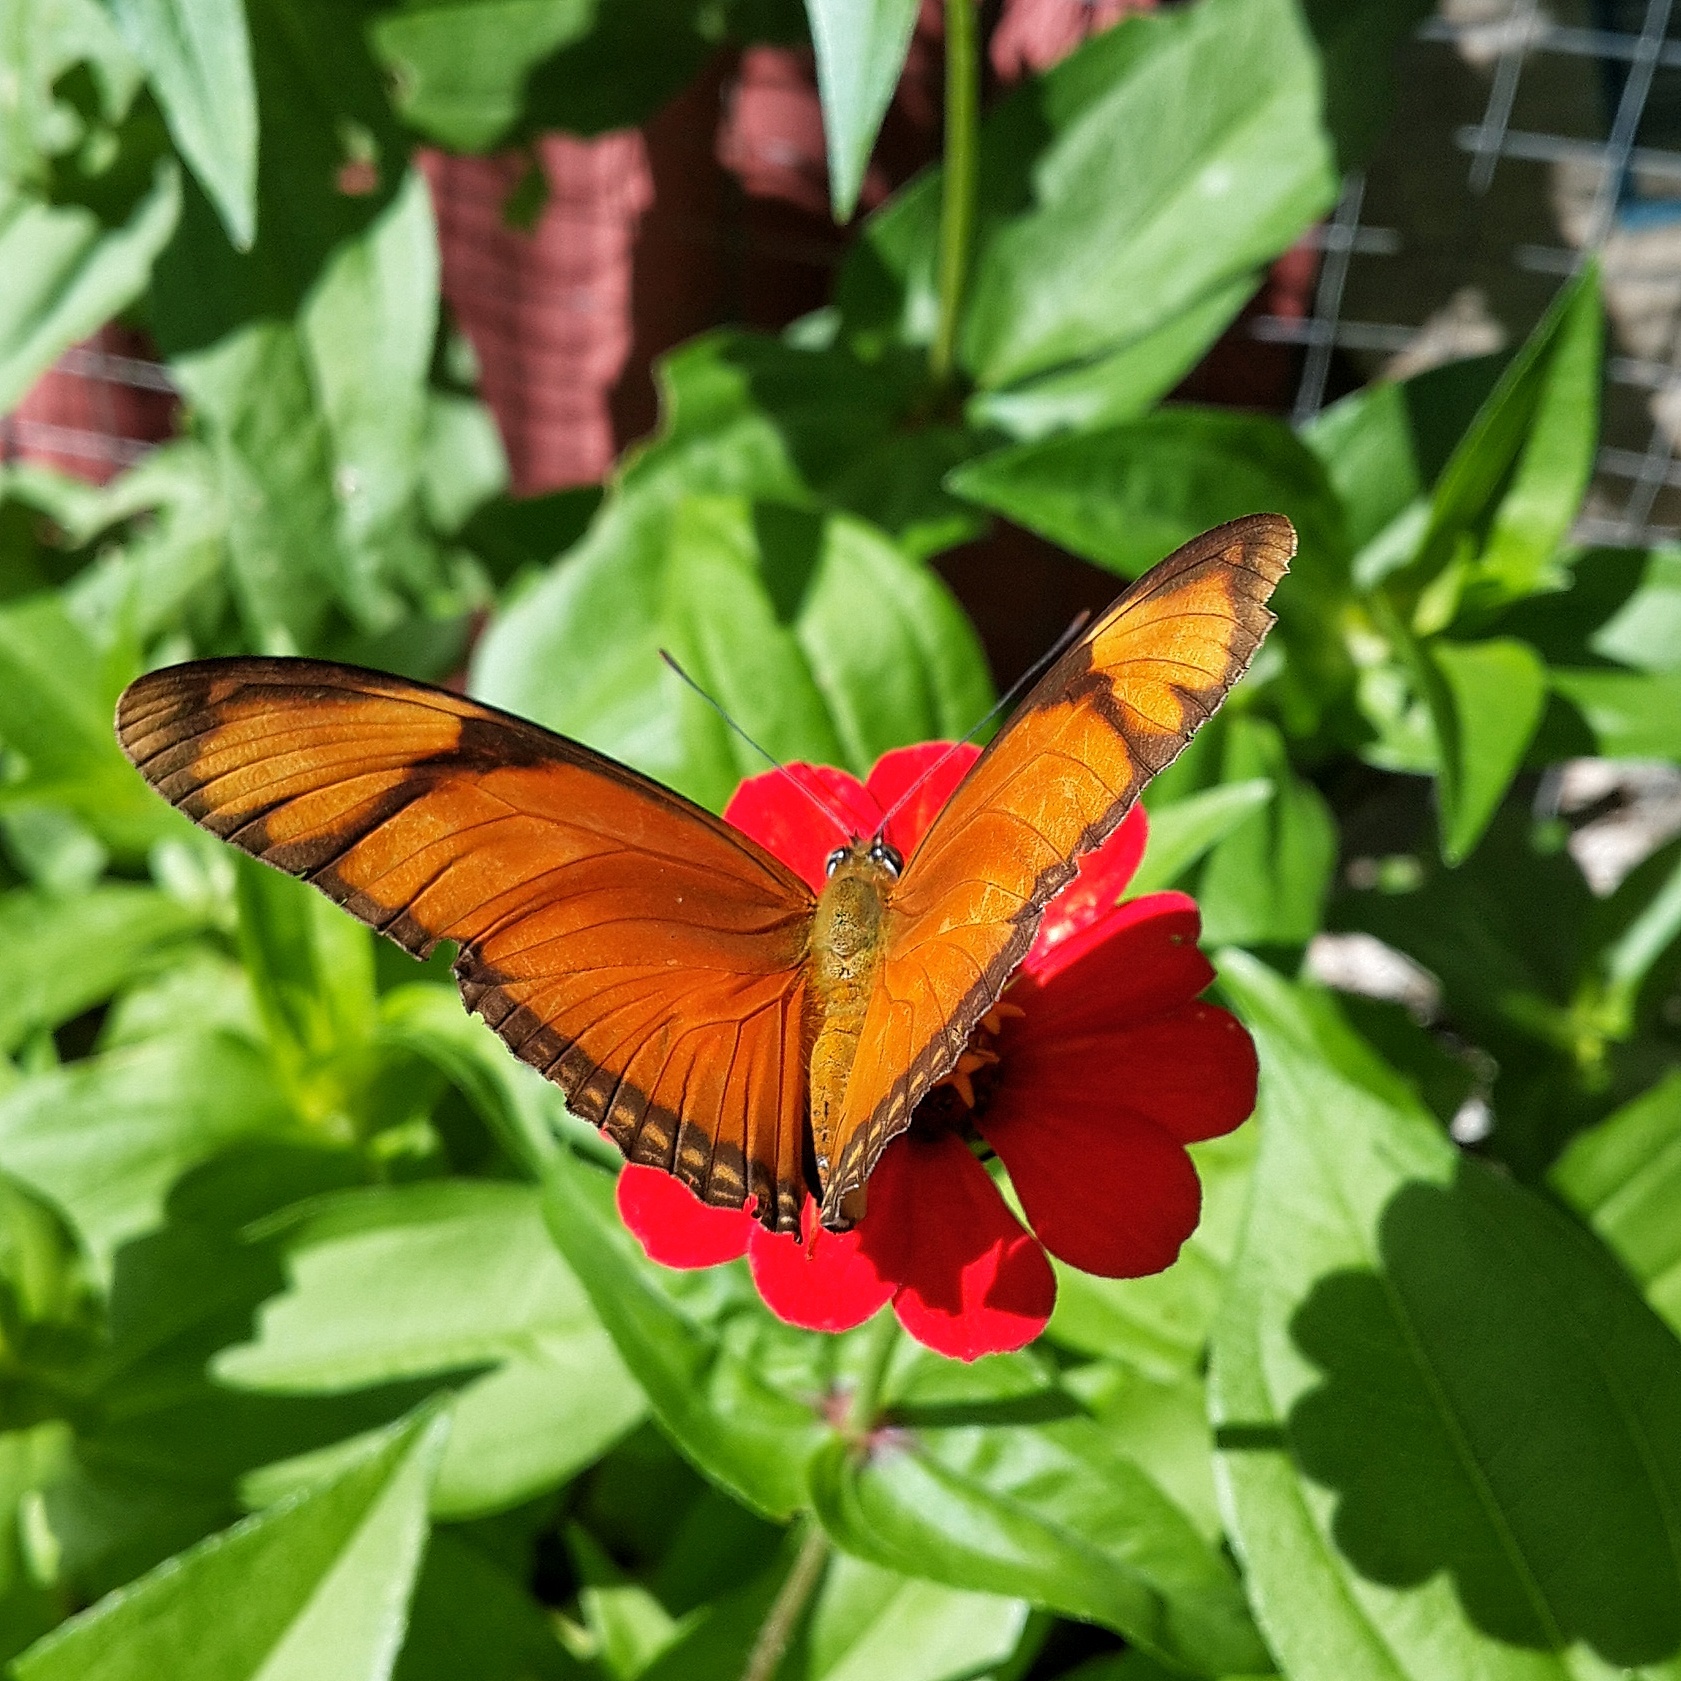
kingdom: Animalia
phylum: Arthropoda
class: Insecta
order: Lepidoptera
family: Nymphalidae
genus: Dryas
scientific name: Dryas iulia
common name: Flambeau
